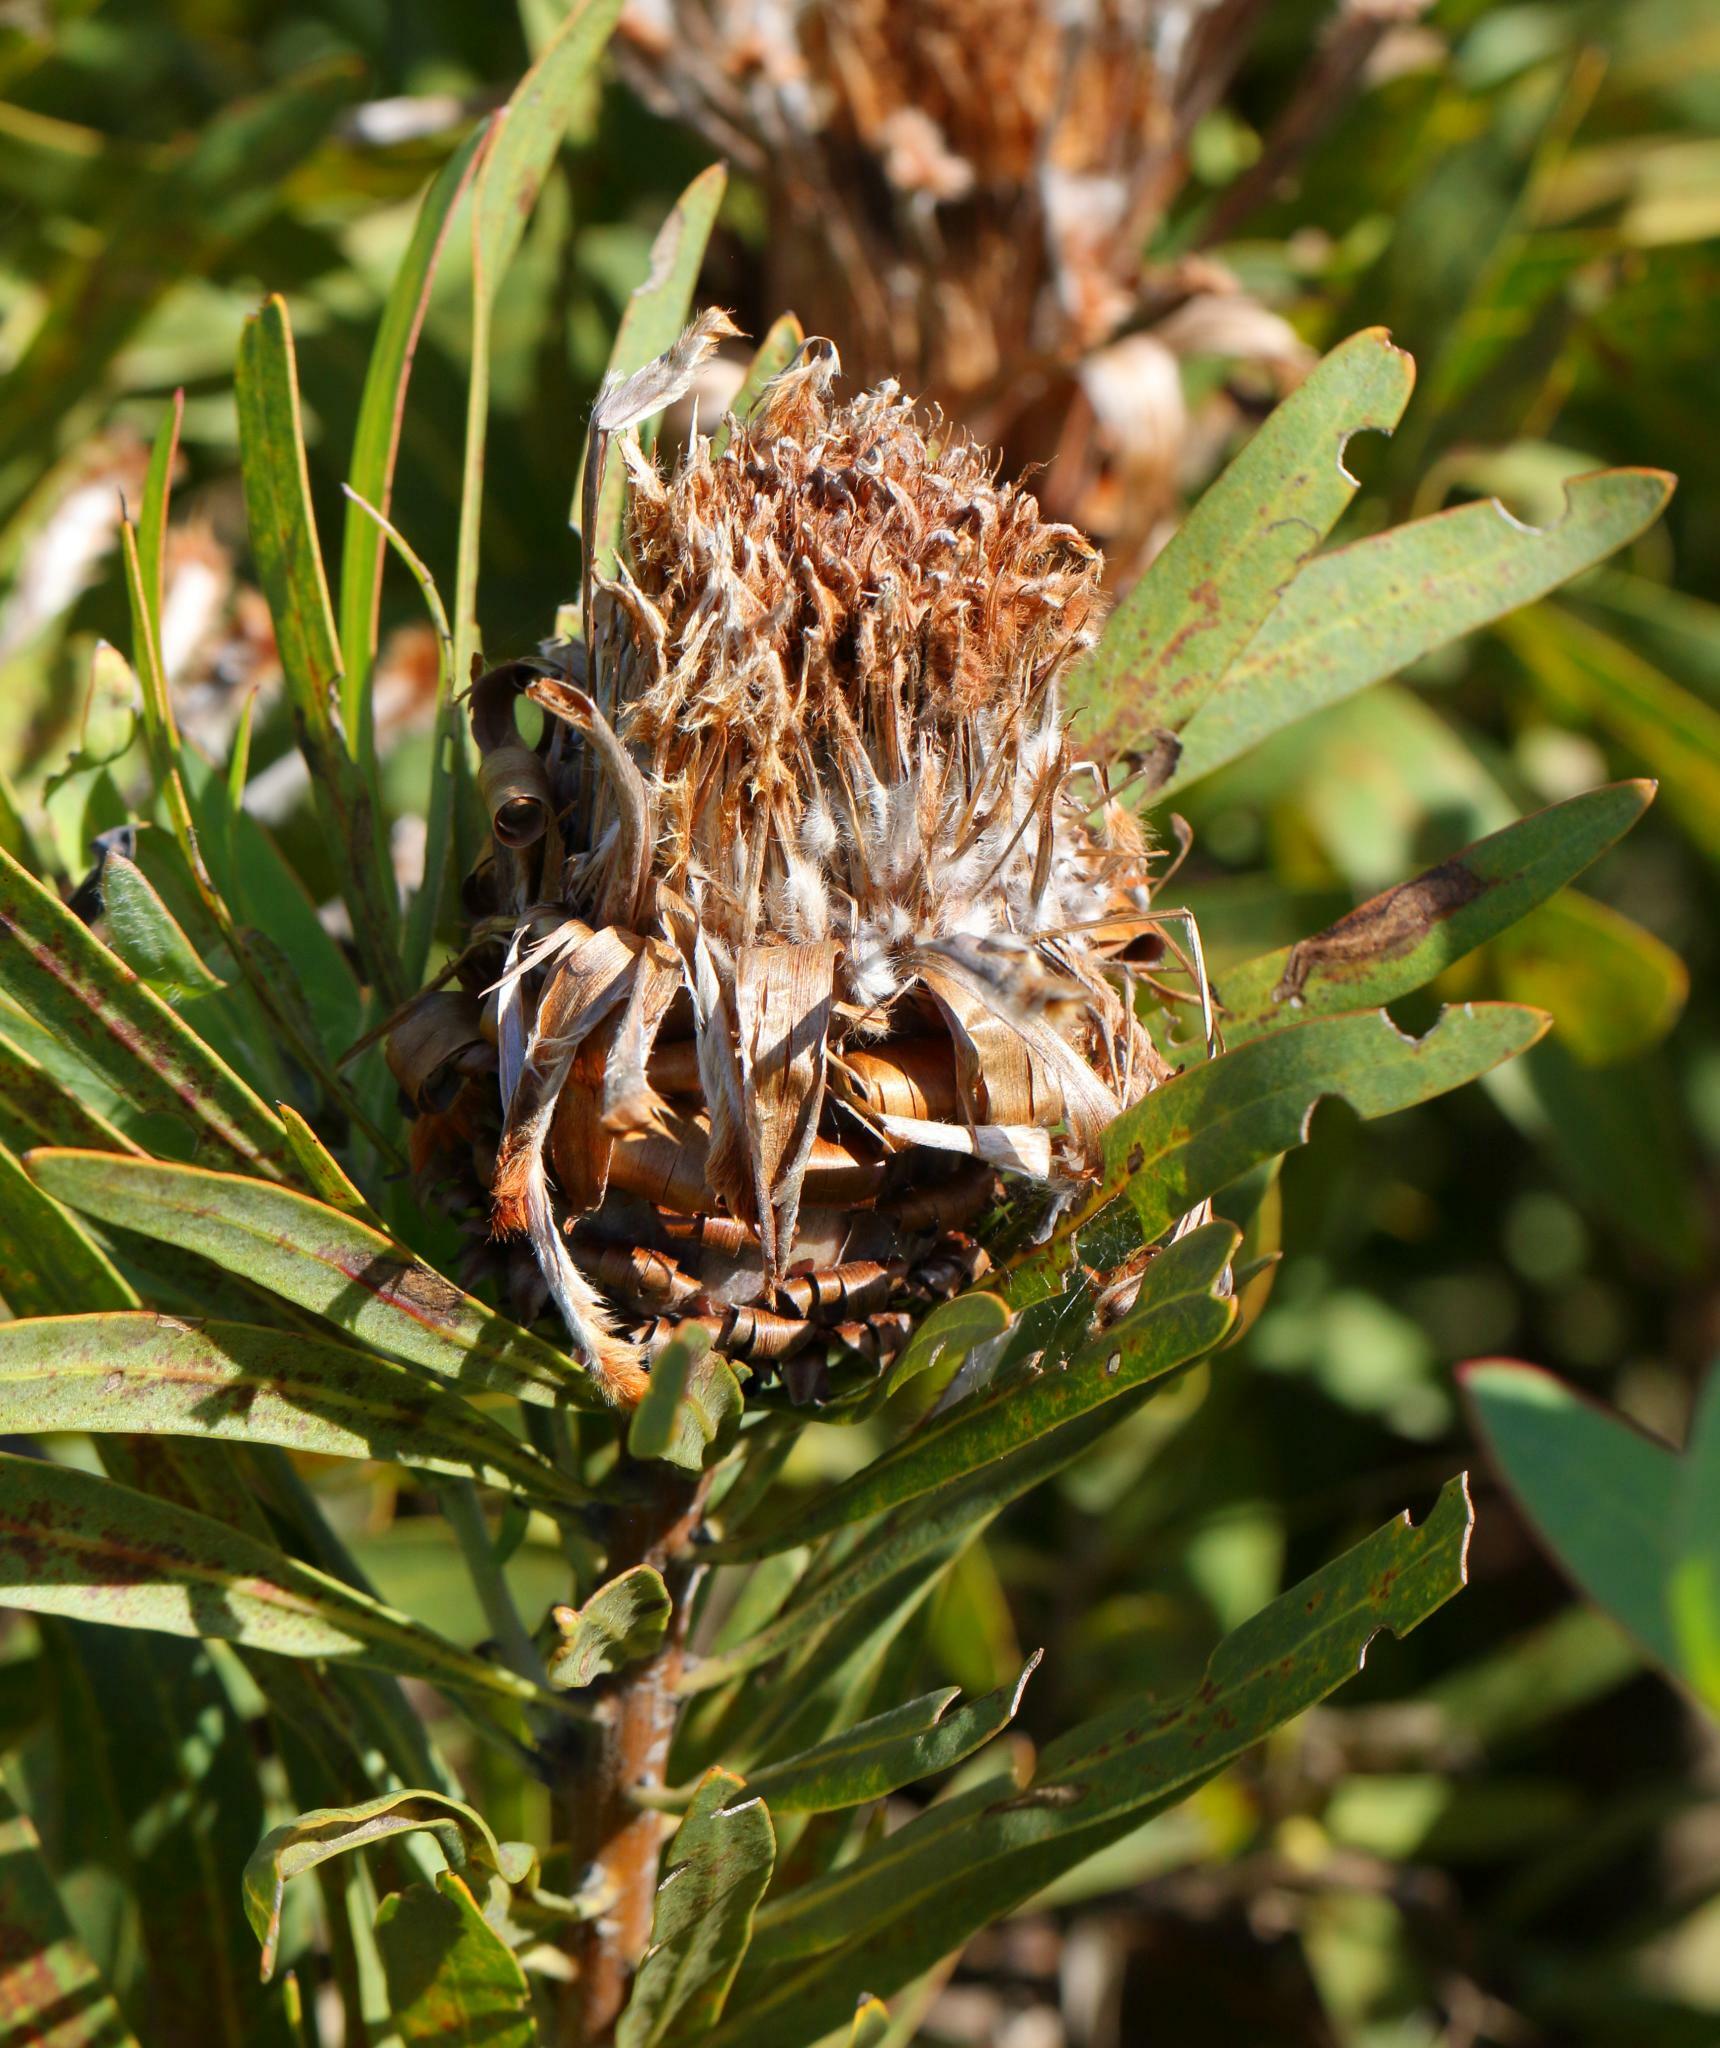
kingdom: Plantae
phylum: Tracheophyta
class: Magnoliopsida
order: Proteales
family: Proteaceae
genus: Protea
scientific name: Protea neriifolia
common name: Blue sugarbush
